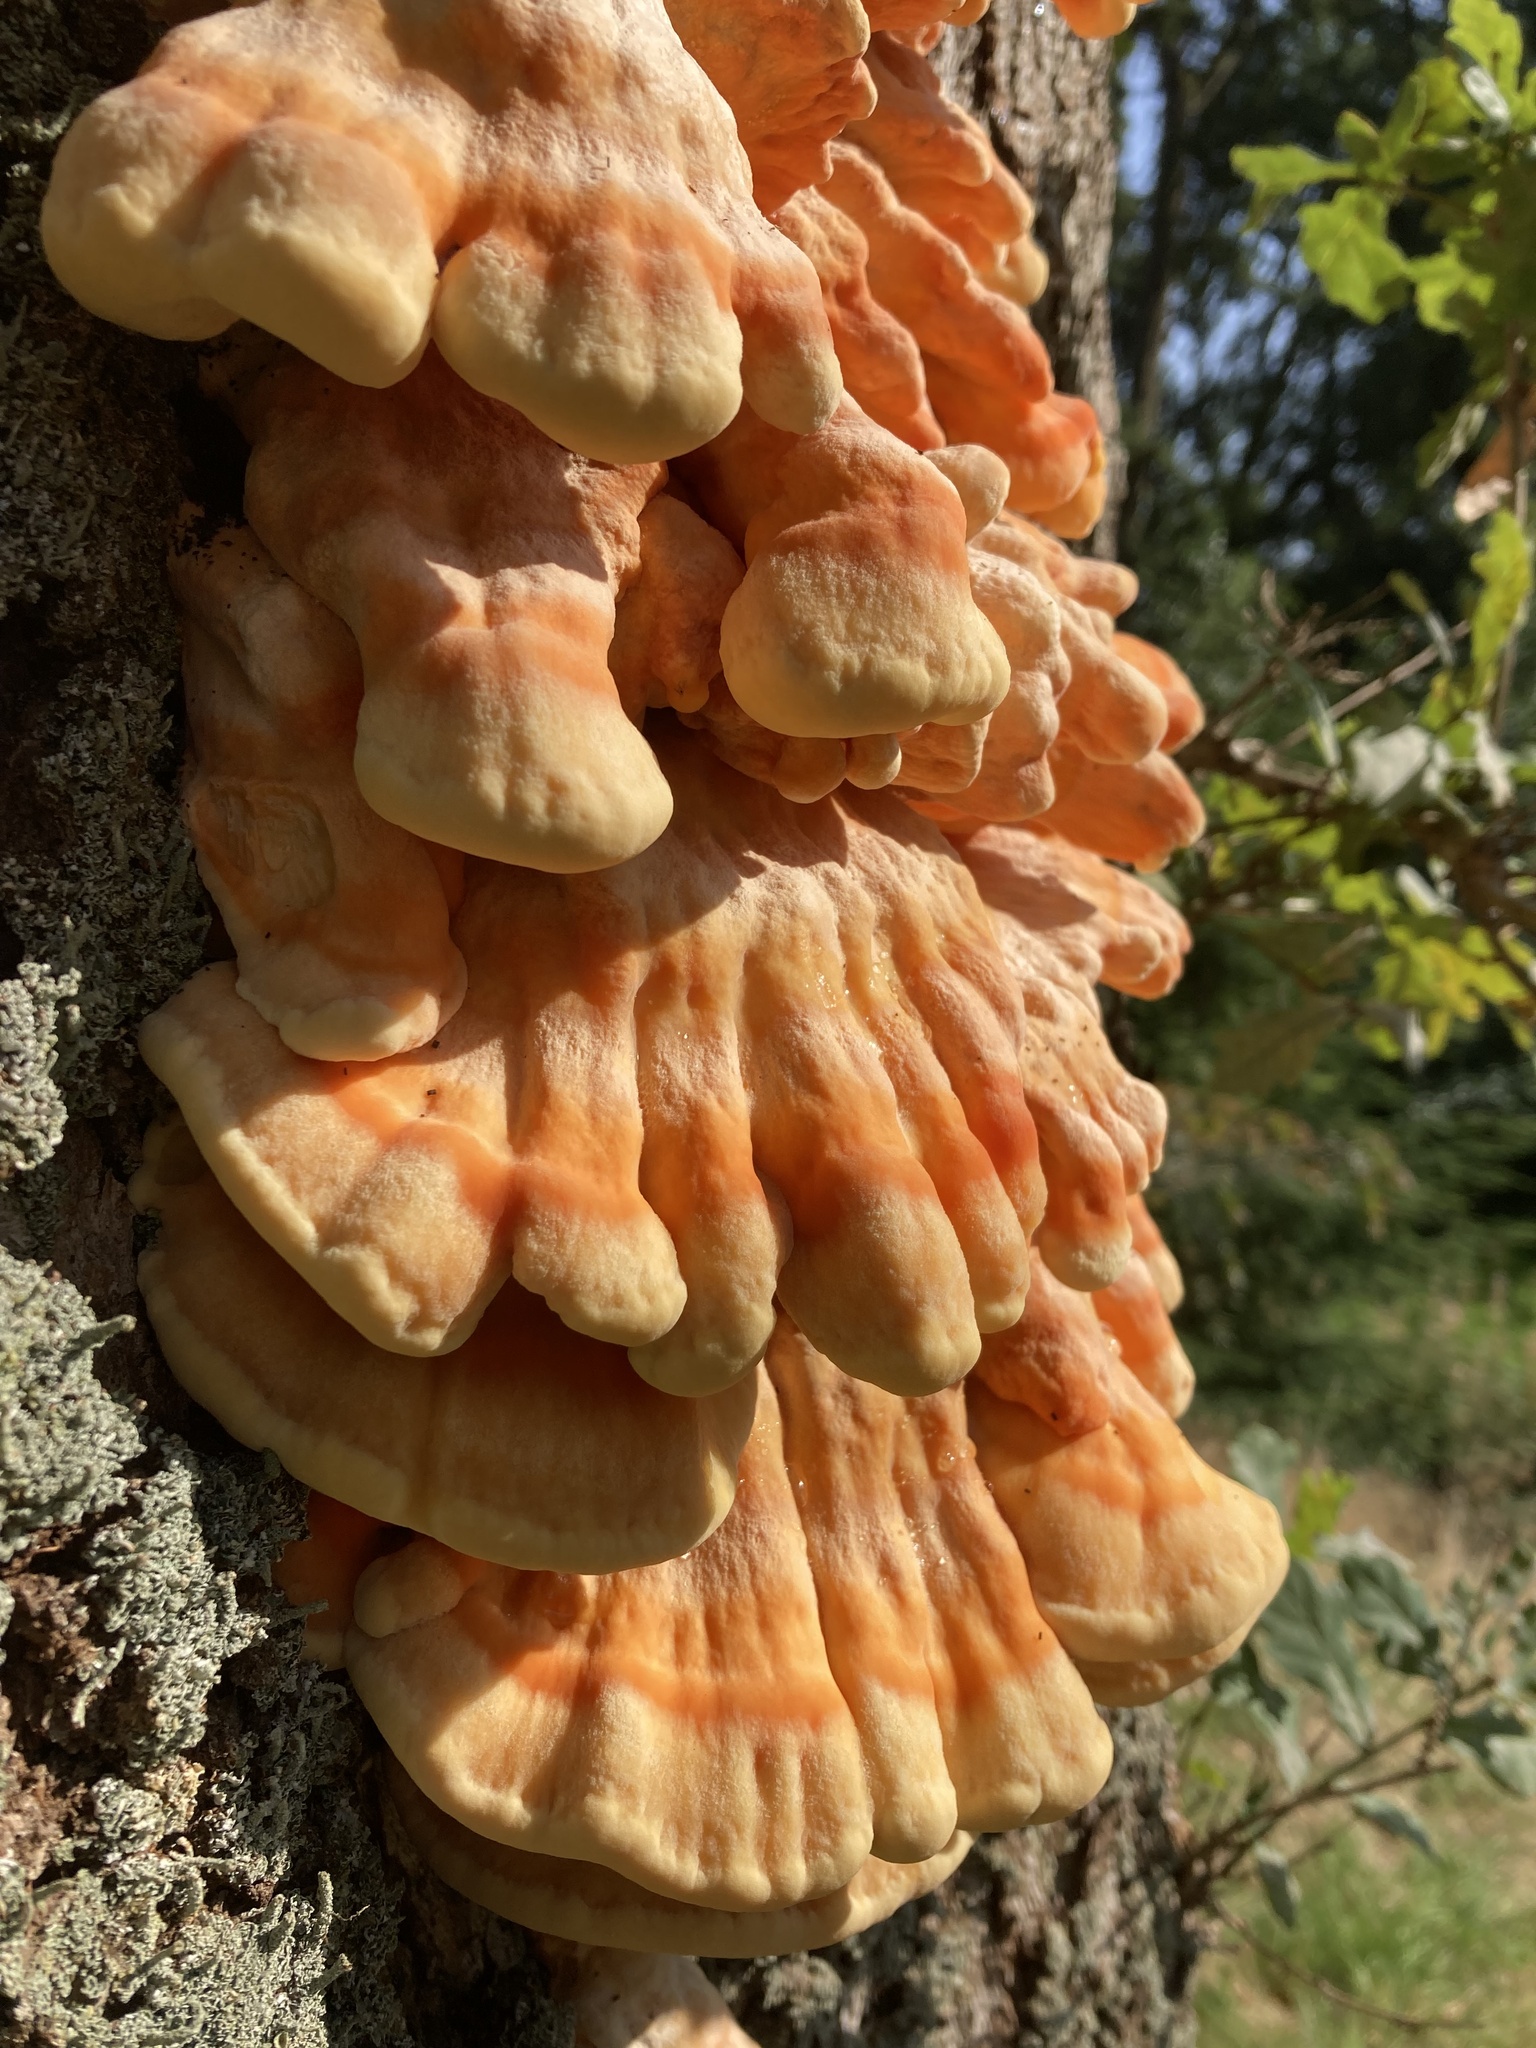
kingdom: Fungi
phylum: Basidiomycota
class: Agaricomycetes
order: Polyporales
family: Laetiporaceae
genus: Laetiporus
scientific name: Laetiporus sulphureus
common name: Chicken of the woods
